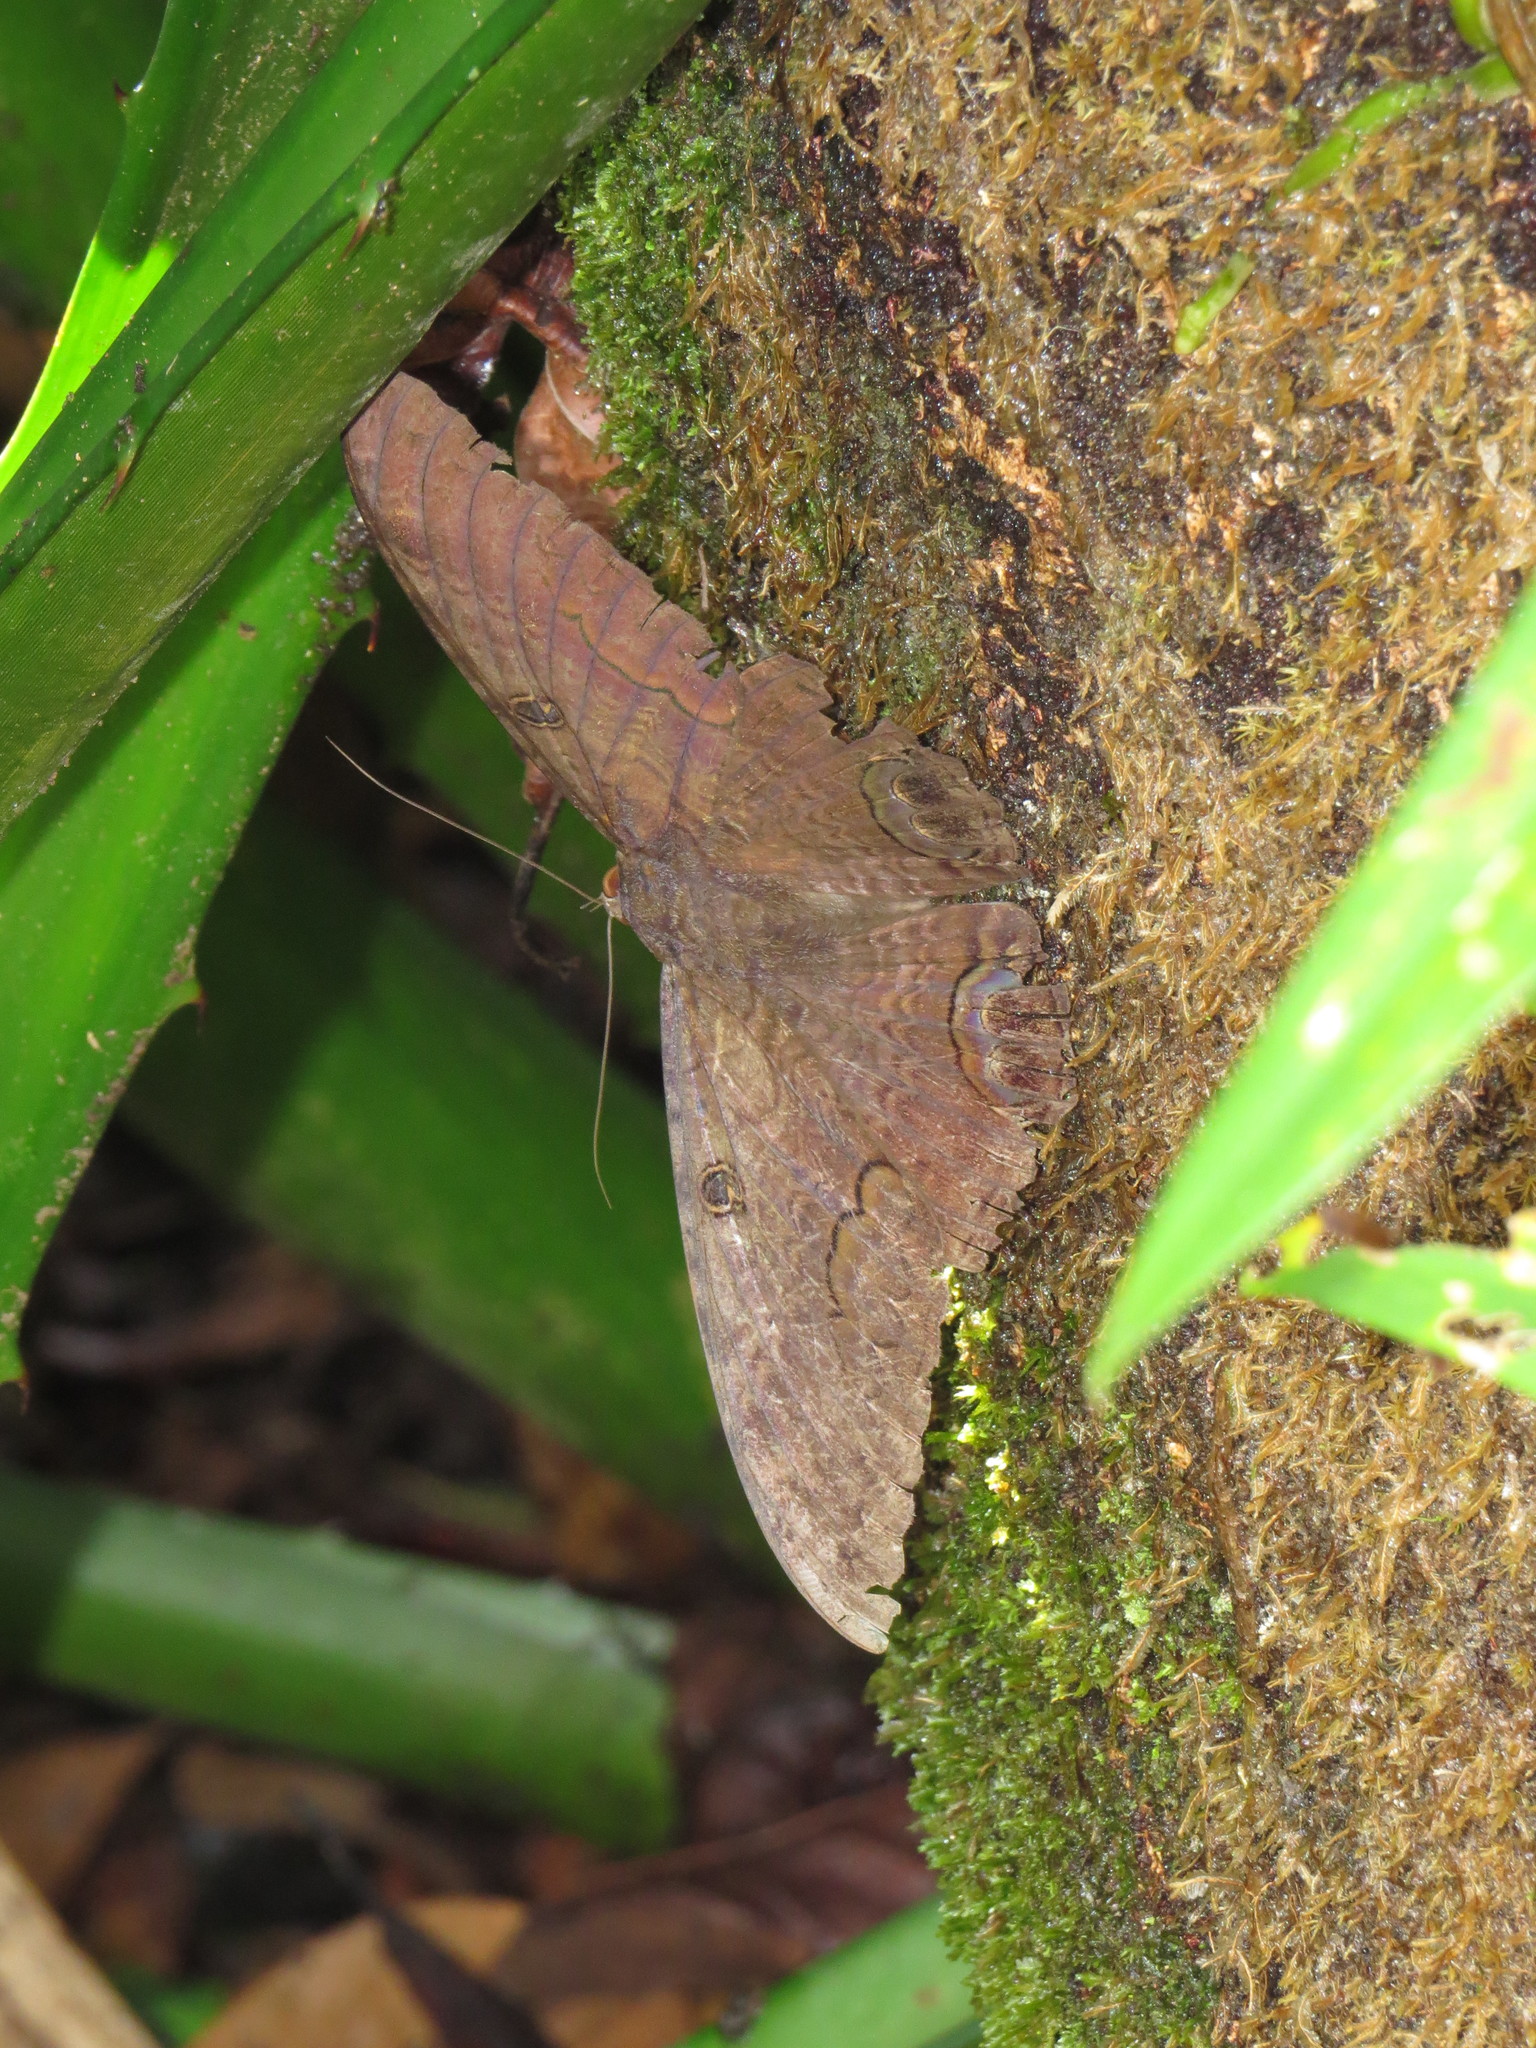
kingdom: Animalia
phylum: Arthropoda
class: Insecta
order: Lepidoptera
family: Erebidae
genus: Ascalapha
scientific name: Ascalapha odorata
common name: Black witch
